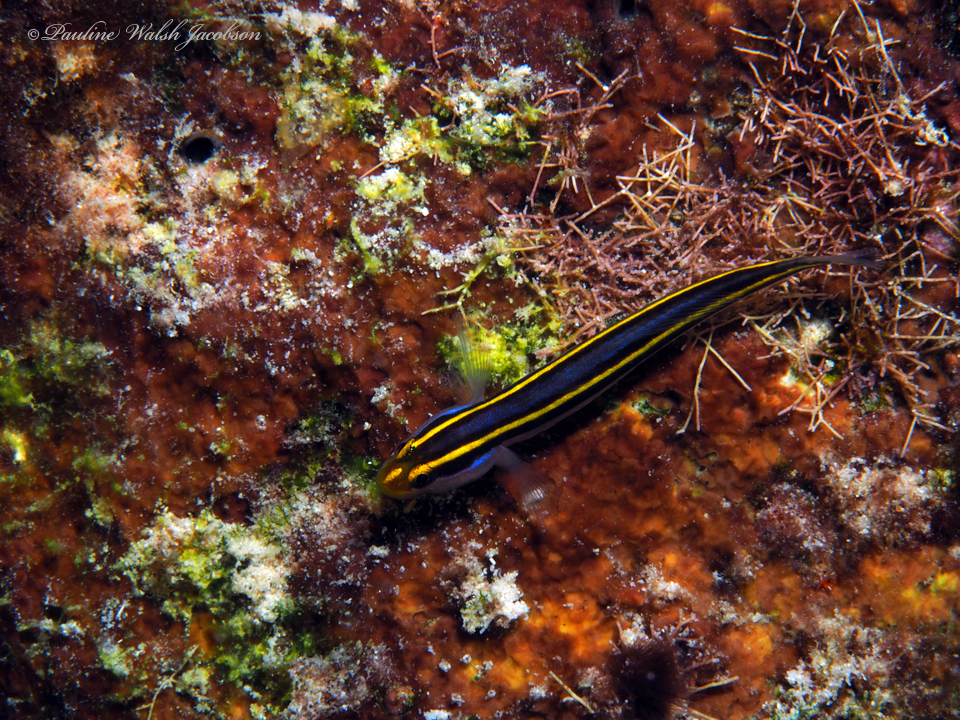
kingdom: Animalia
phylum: Chordata
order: Perciformes
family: Gobiidae
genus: Elacatinus
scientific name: Elacatinus randalli
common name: Yellownose goby
